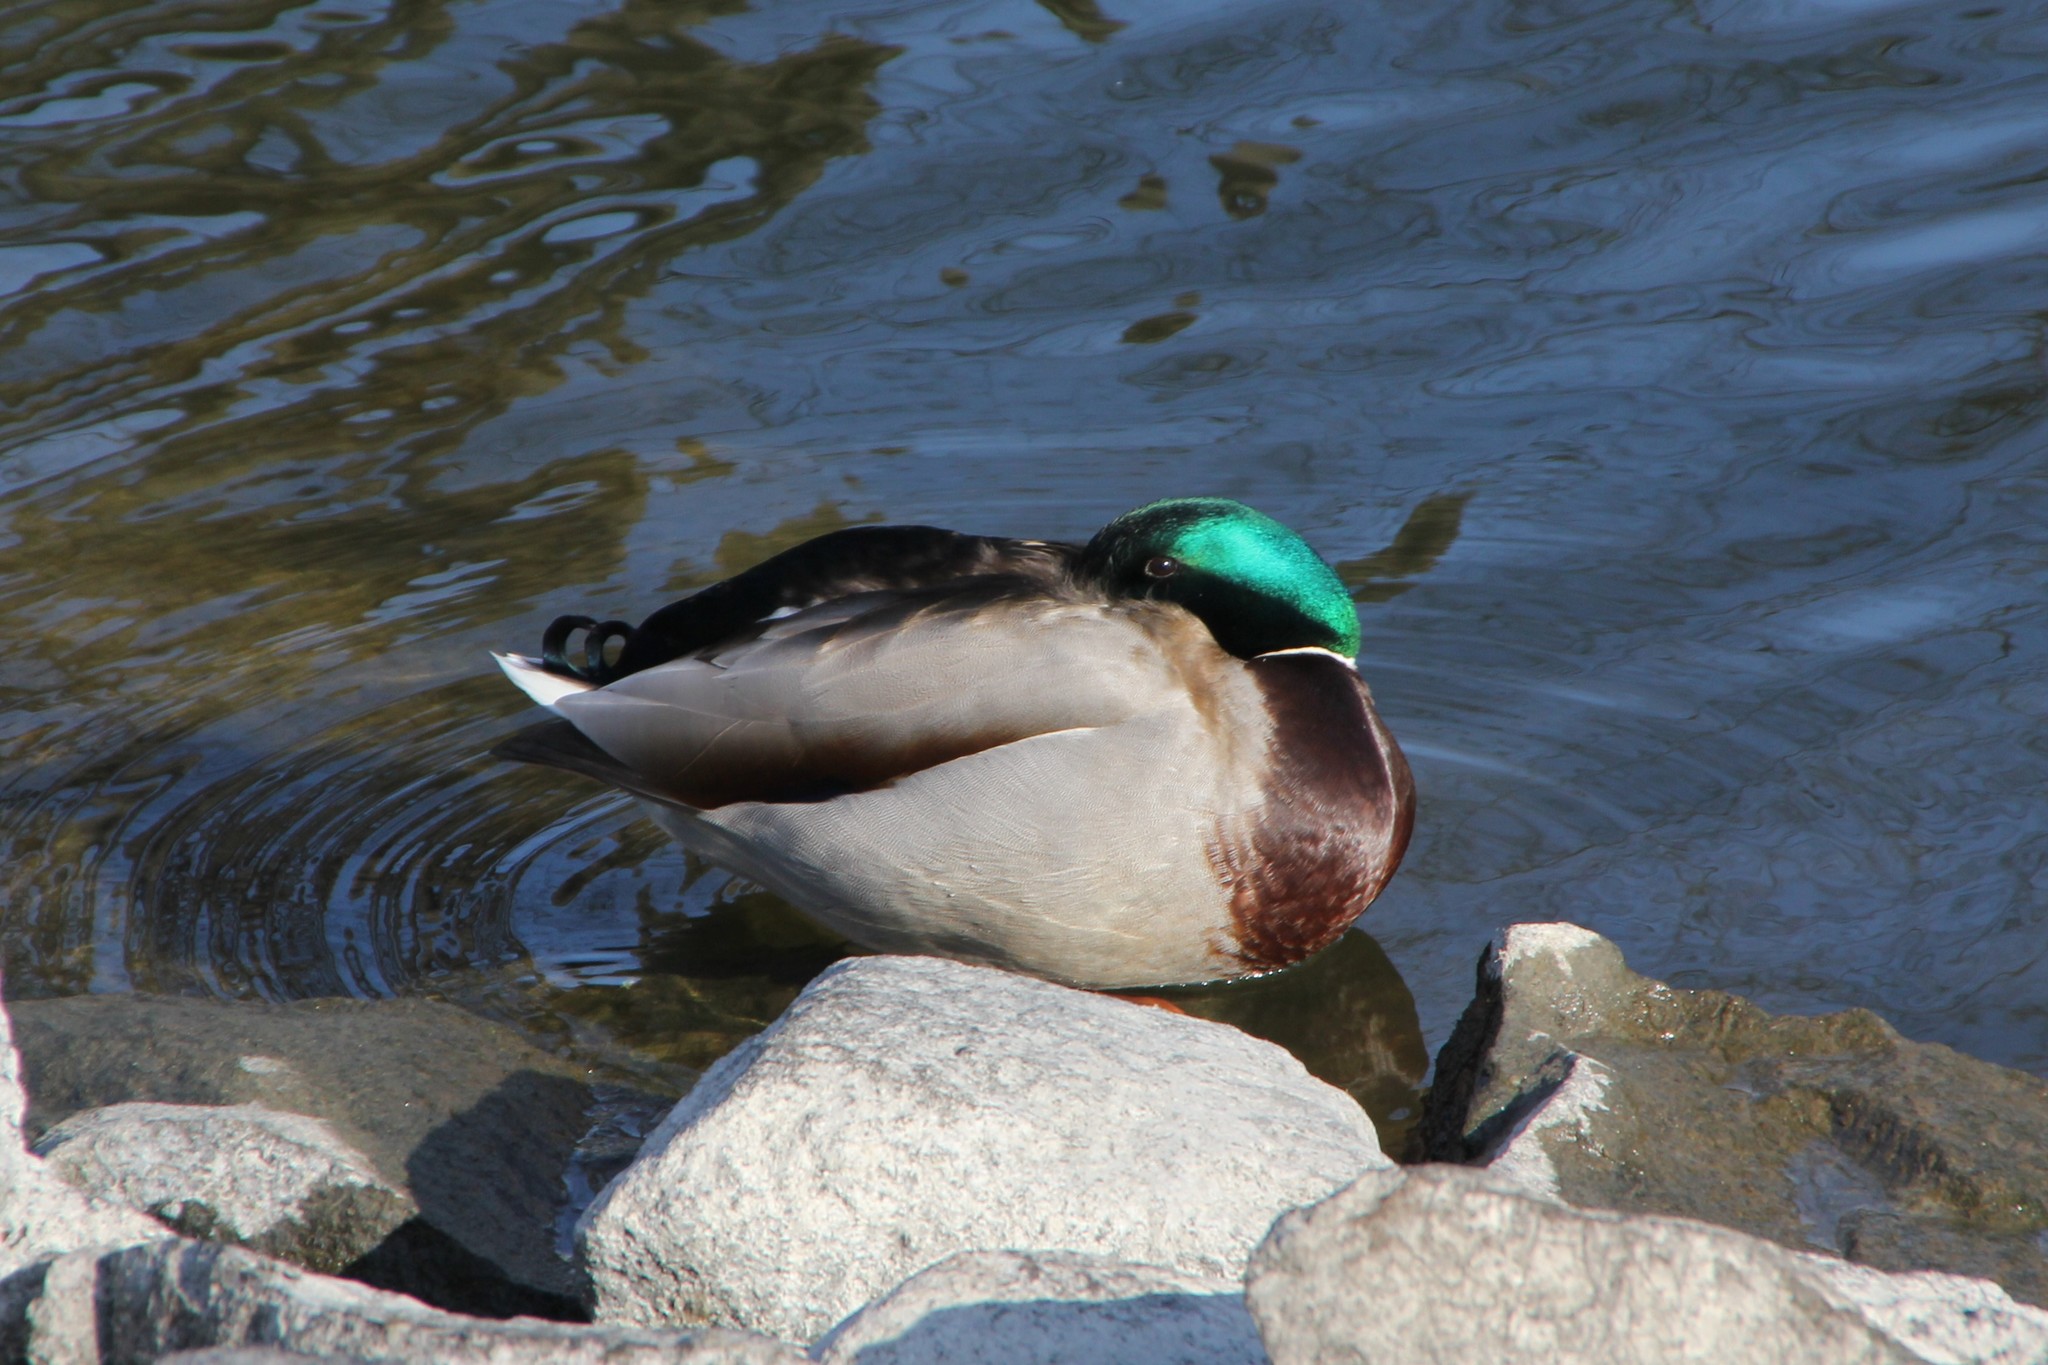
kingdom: Animalia
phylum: Chordata
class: Aves
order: Anseriformes
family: Anatidae
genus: Anas
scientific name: Anas platyrhynchos
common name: Mallard
